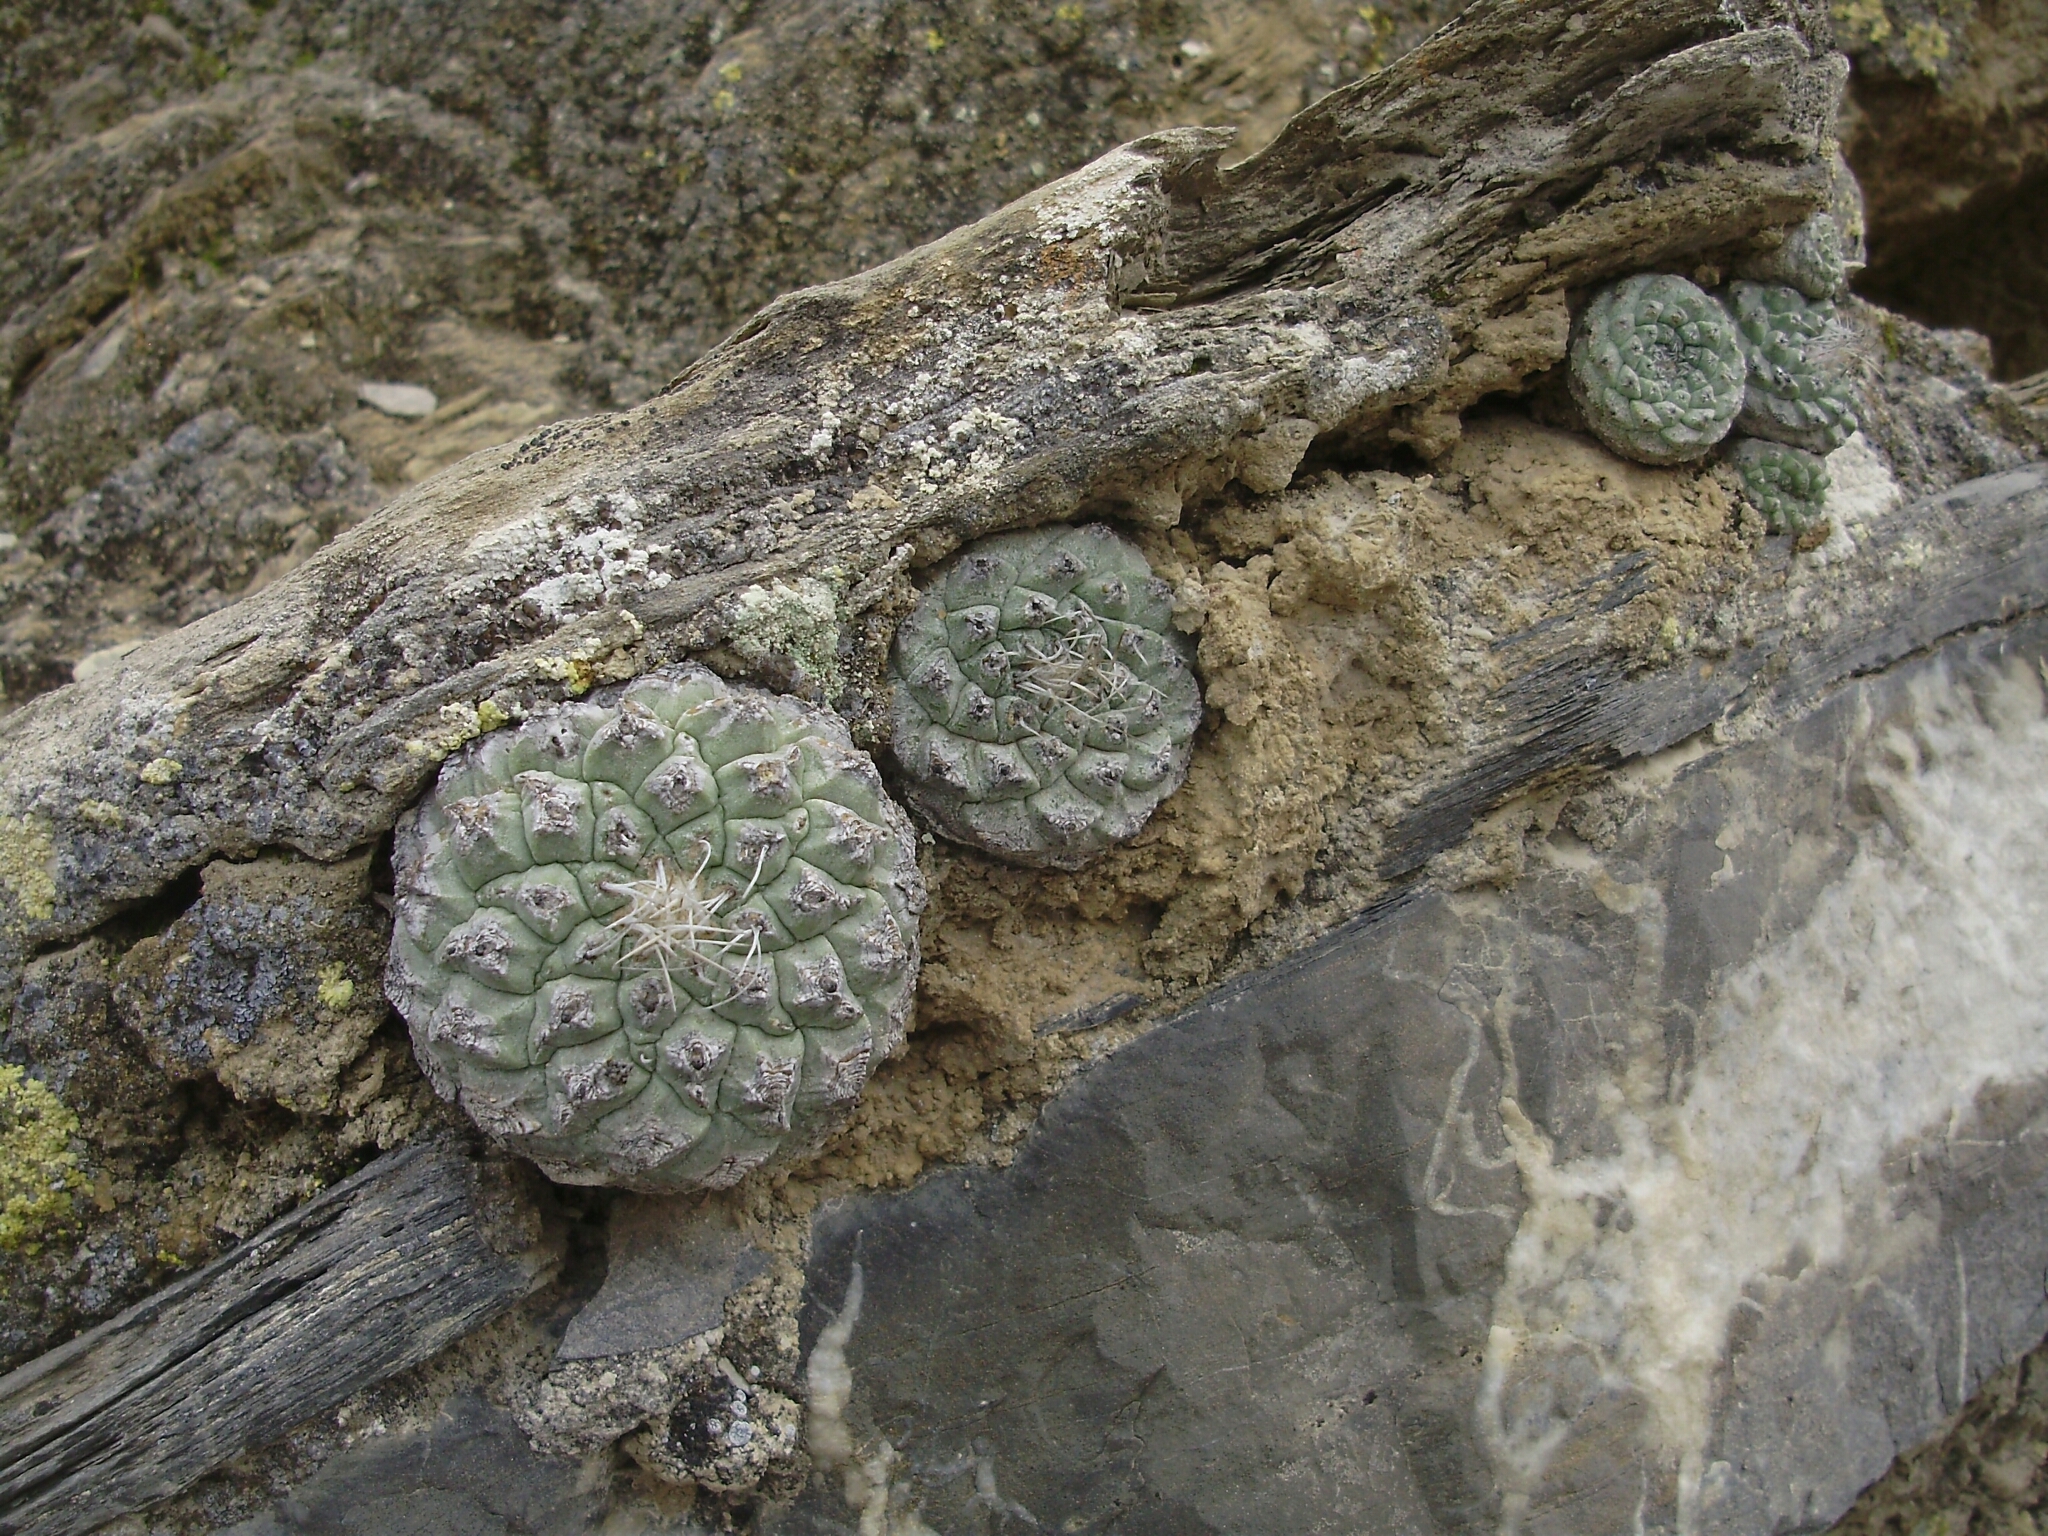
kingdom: Plantae
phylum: Tracheophyta
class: Magnoliopsida
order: Caryophyllales
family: Cactaceae
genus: Strombocactus
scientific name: Strombocactus disciformis
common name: Top cactus
